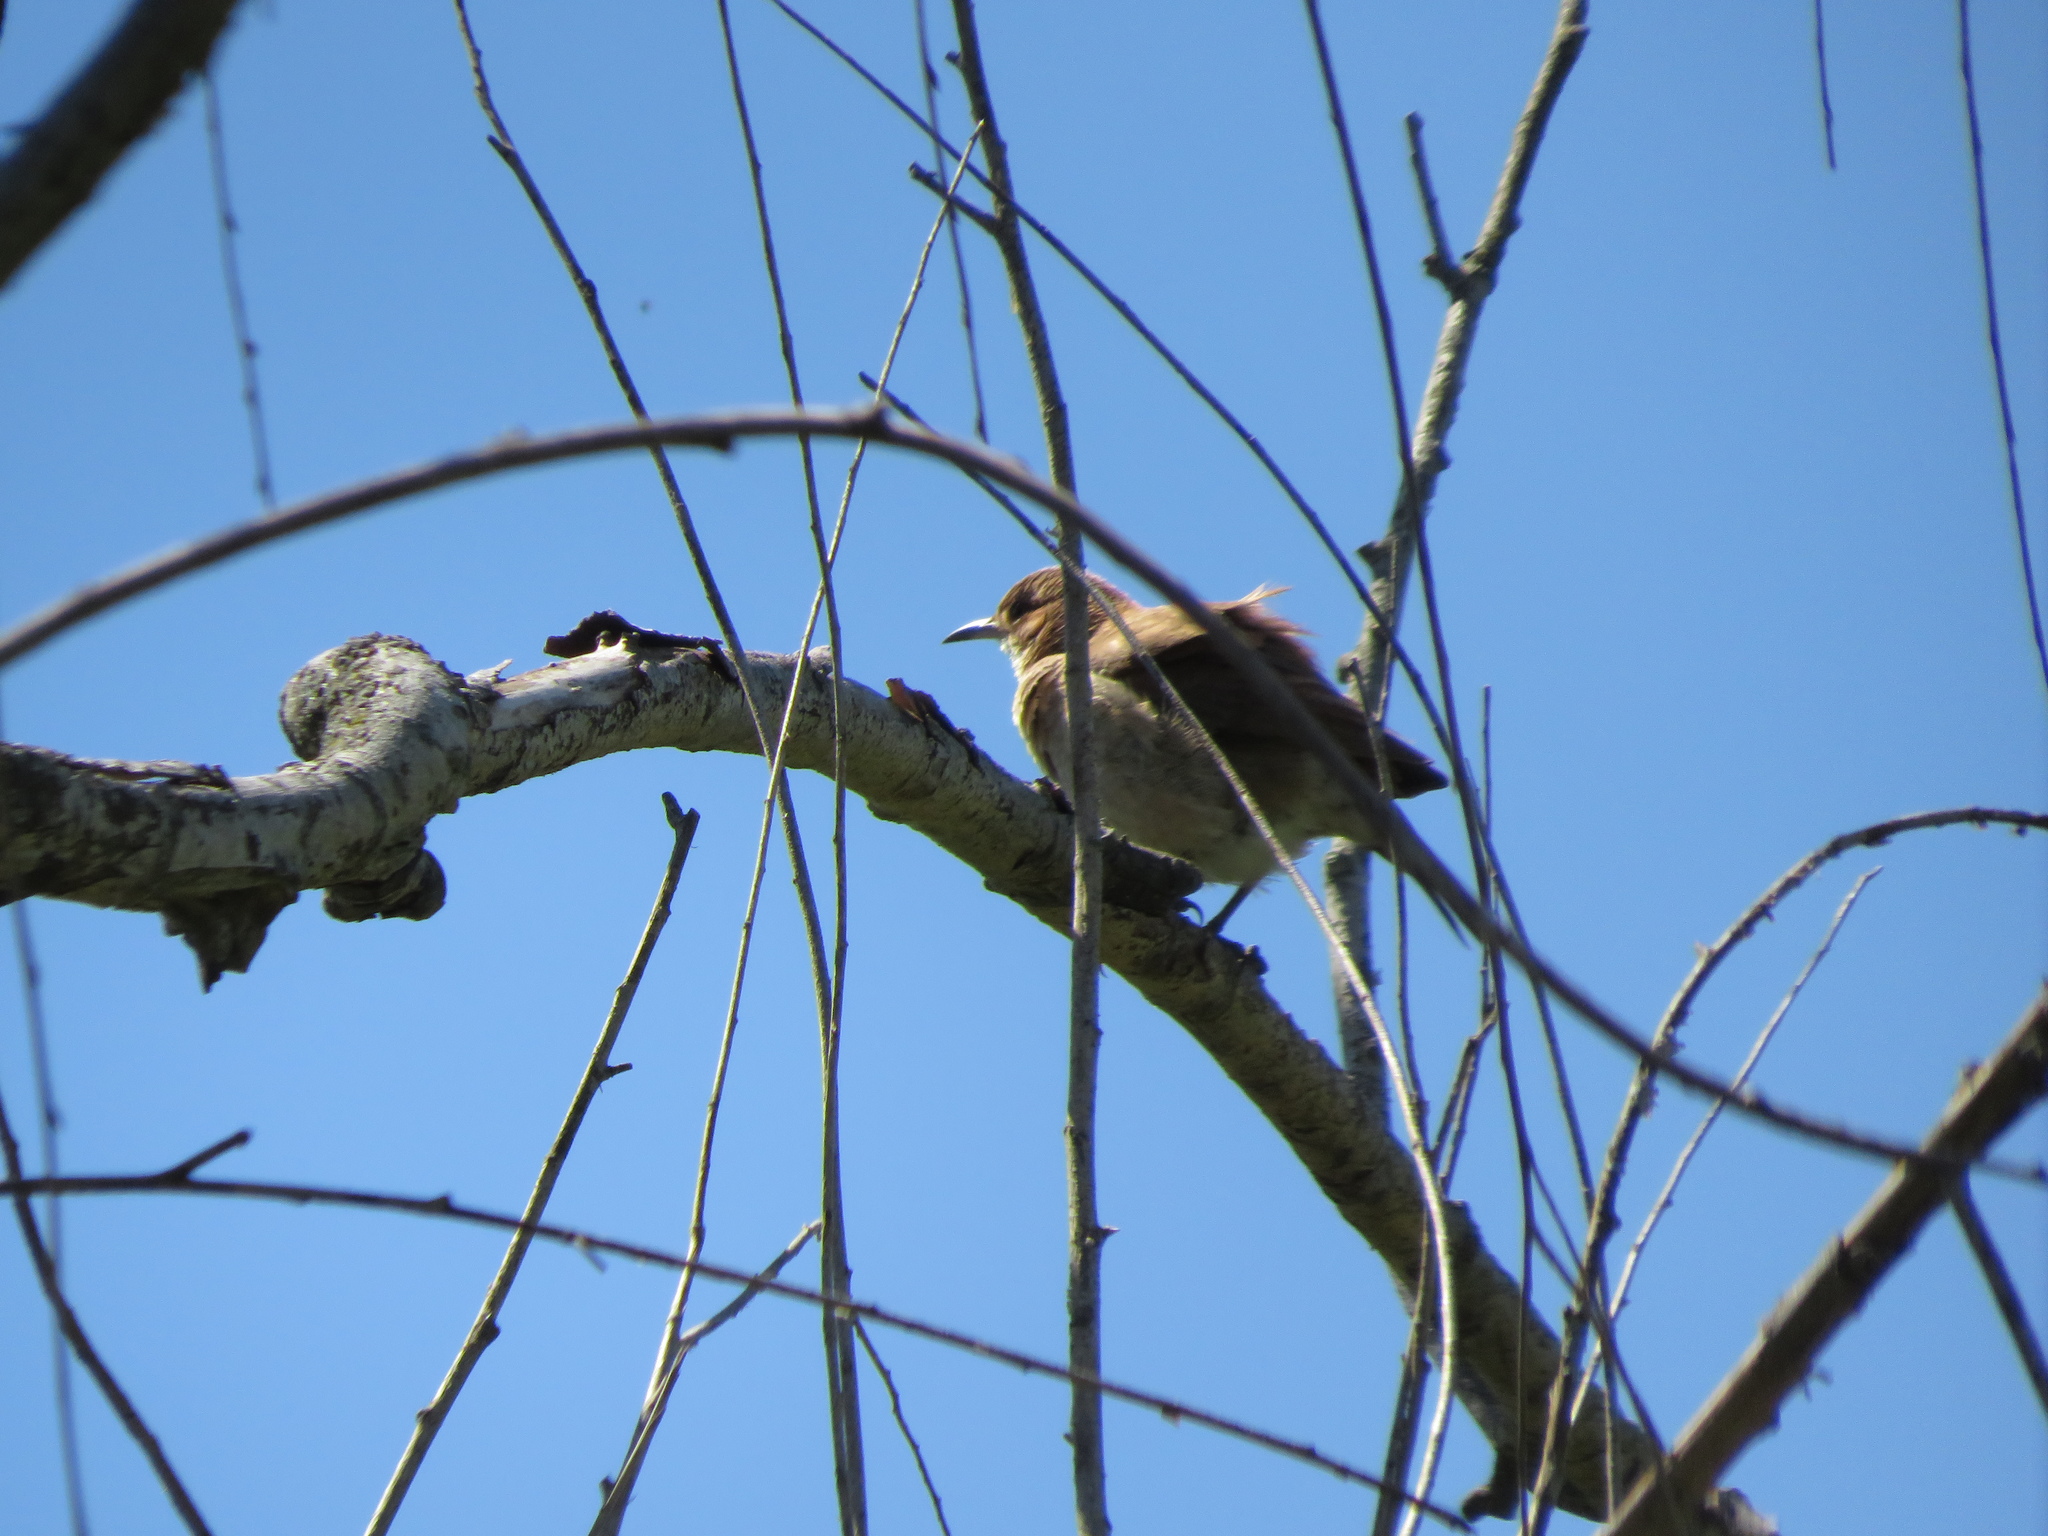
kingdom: Animalia
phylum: Chordata
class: Aves
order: Passeriformes
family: Furnariidae
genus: Furnarius
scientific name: Furnarius rufus
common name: Rufous hornero
